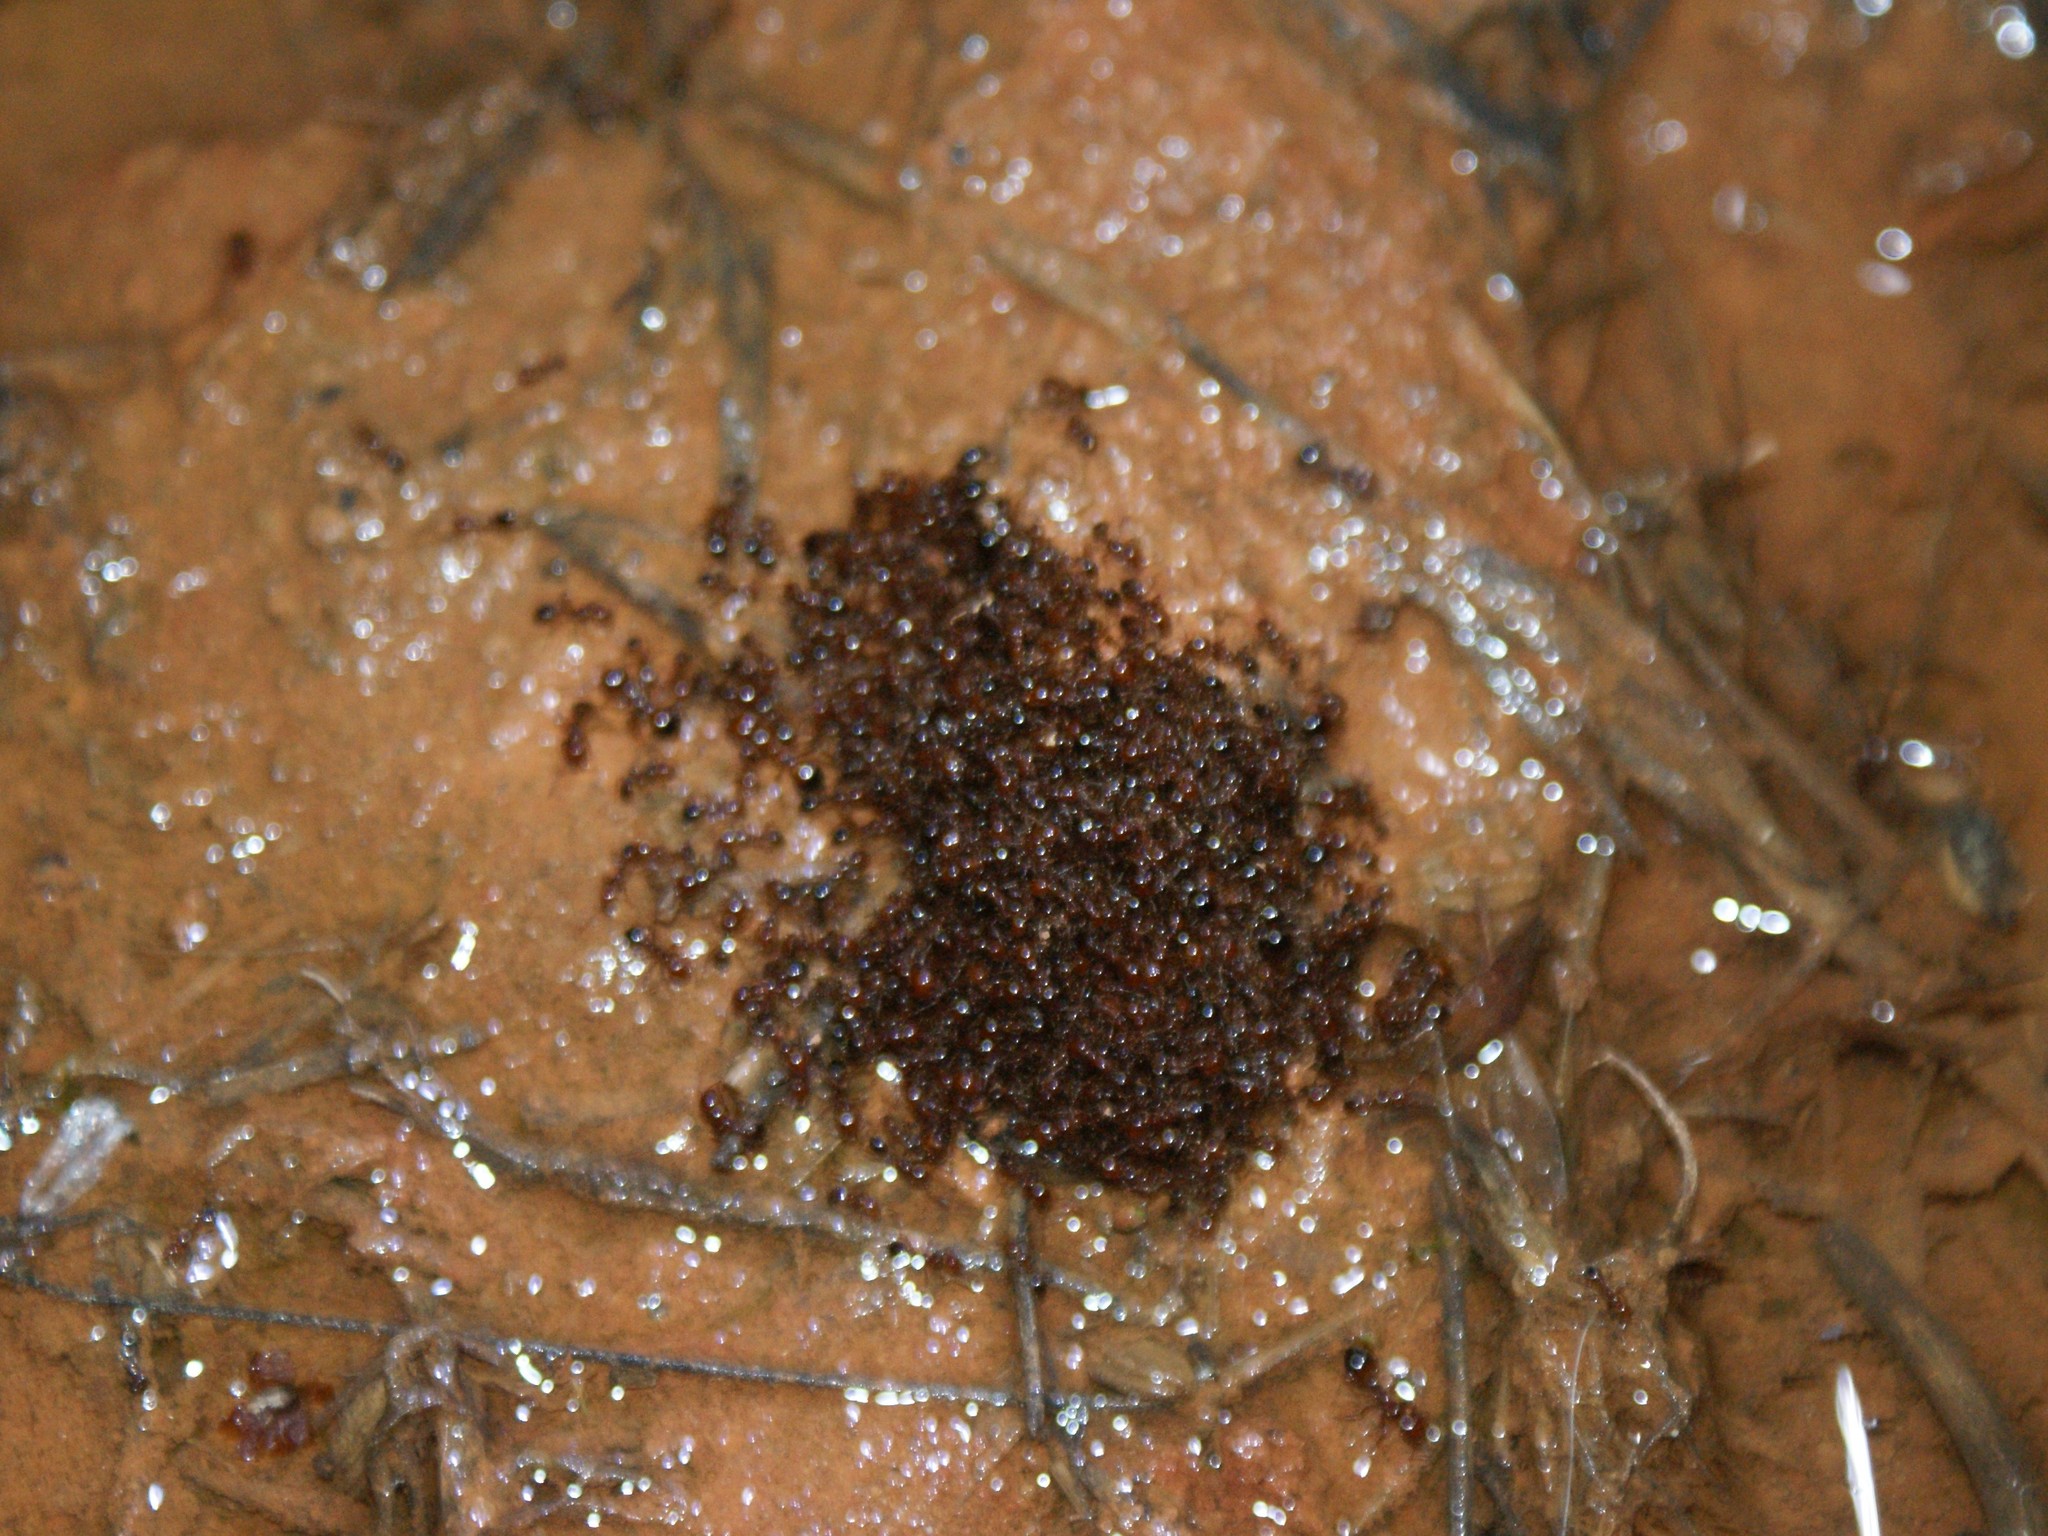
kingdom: Animalia
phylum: Arthropoda
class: Insecta
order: Hymenoptera
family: Formicidae
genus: Solenopsis
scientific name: Solenopsis invicta
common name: Red imported fire ant
